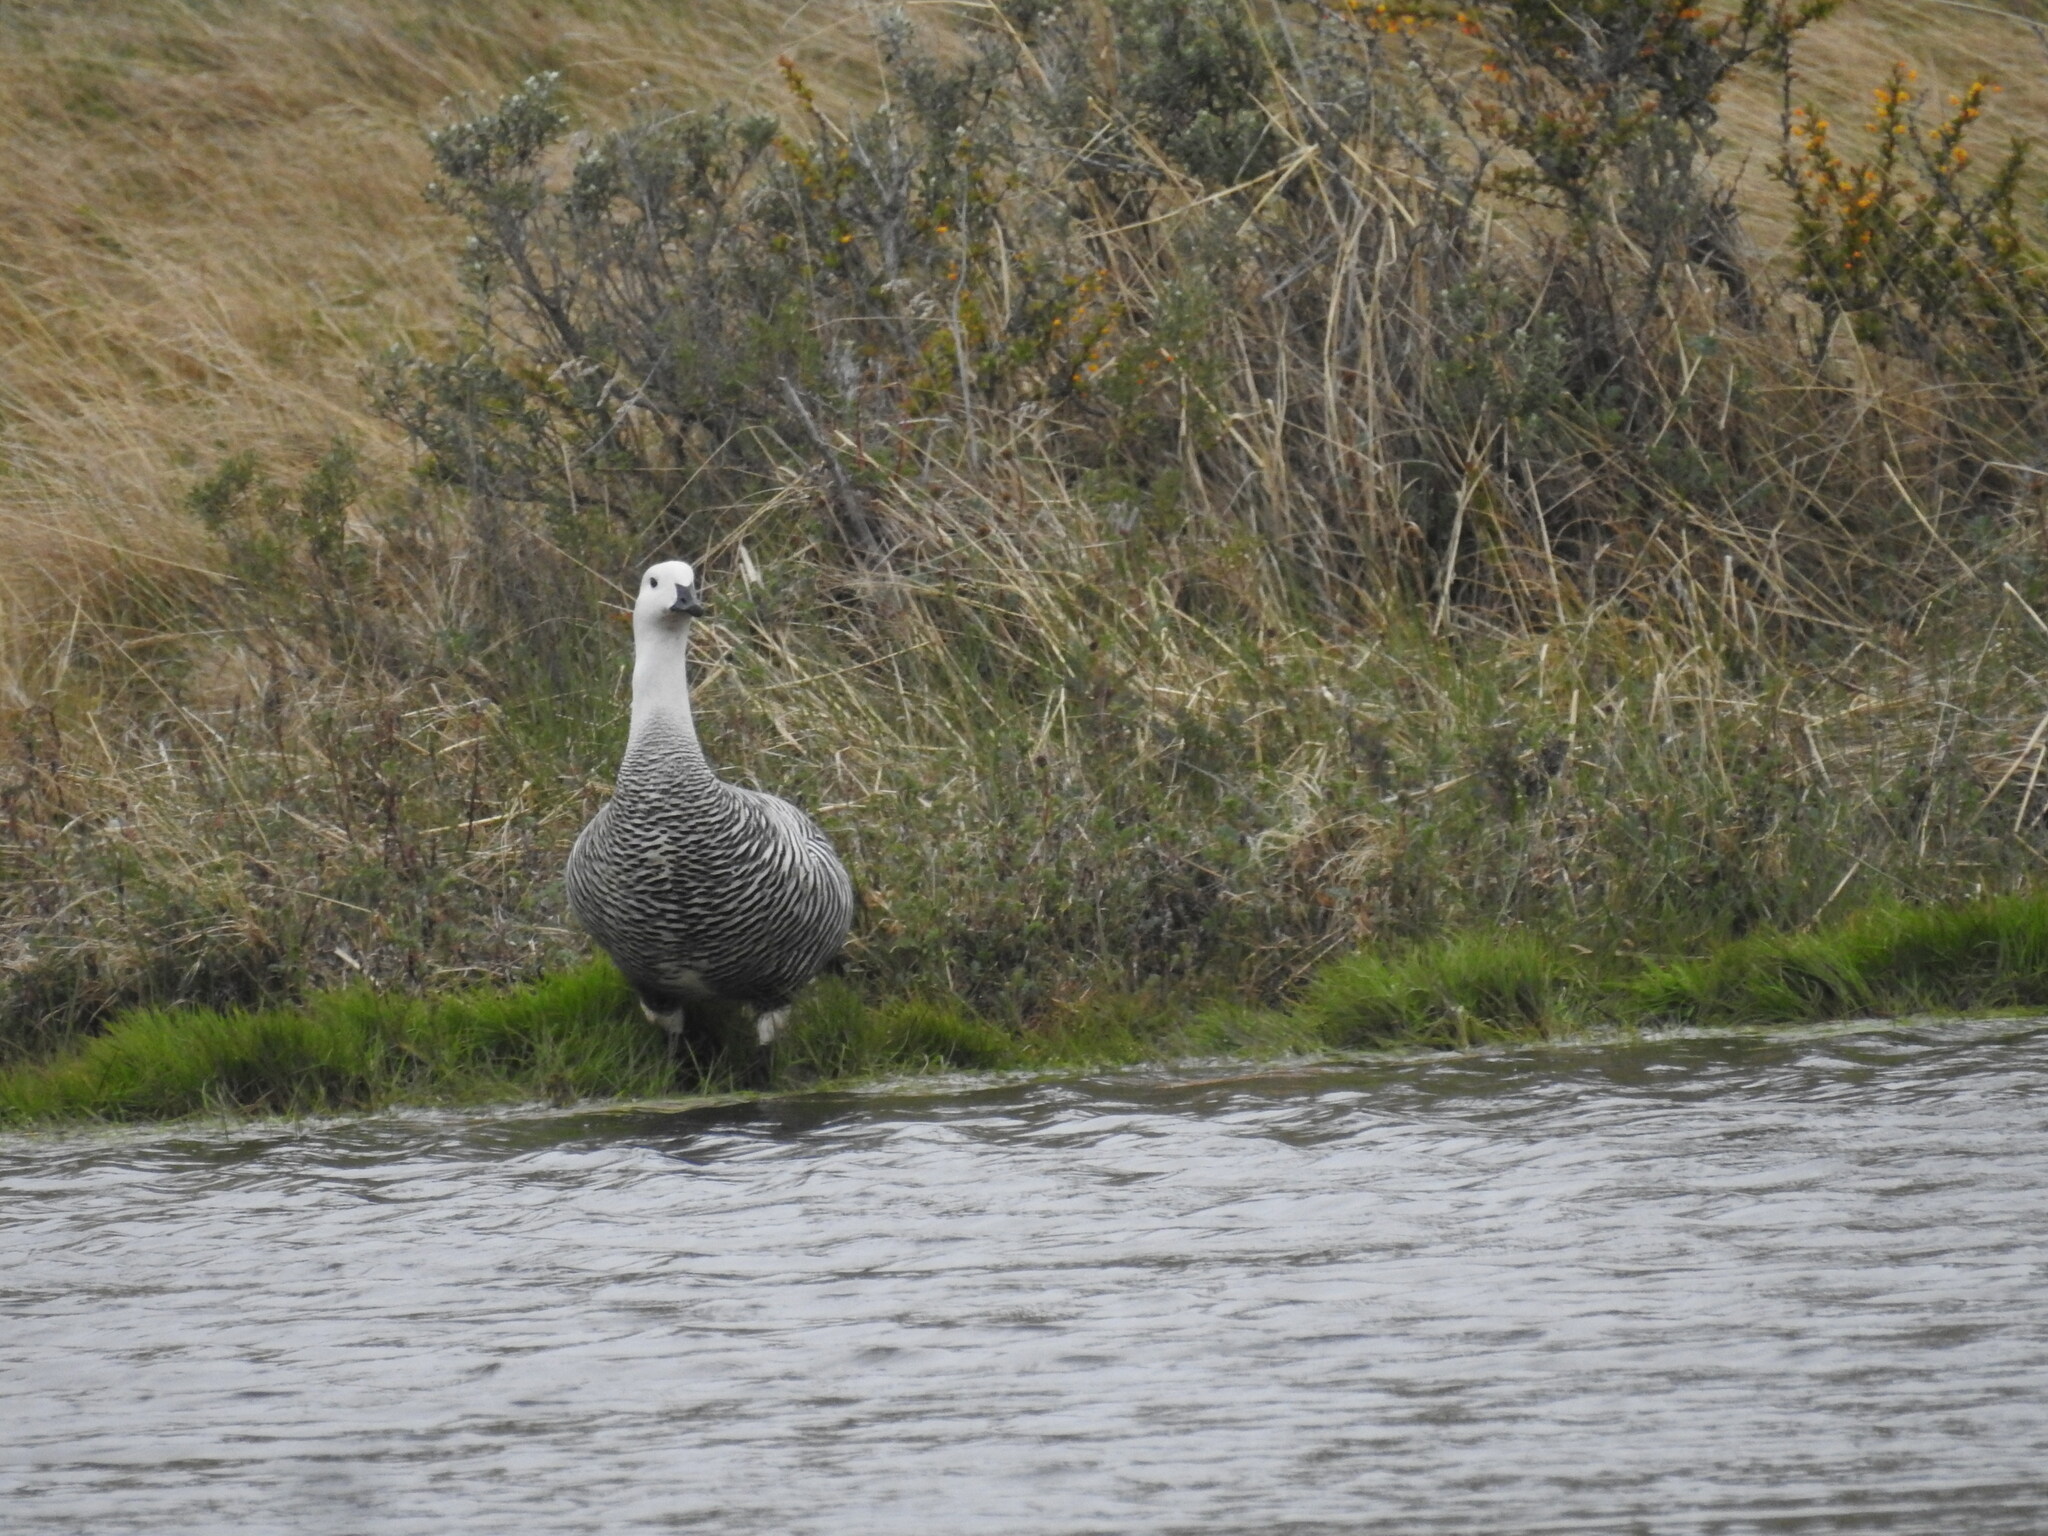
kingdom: Animalia
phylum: Chordata
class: Aves
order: Anseriformes
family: Anatidae
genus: Chloephaga
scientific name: Chloephaga picta
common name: Upland goose
